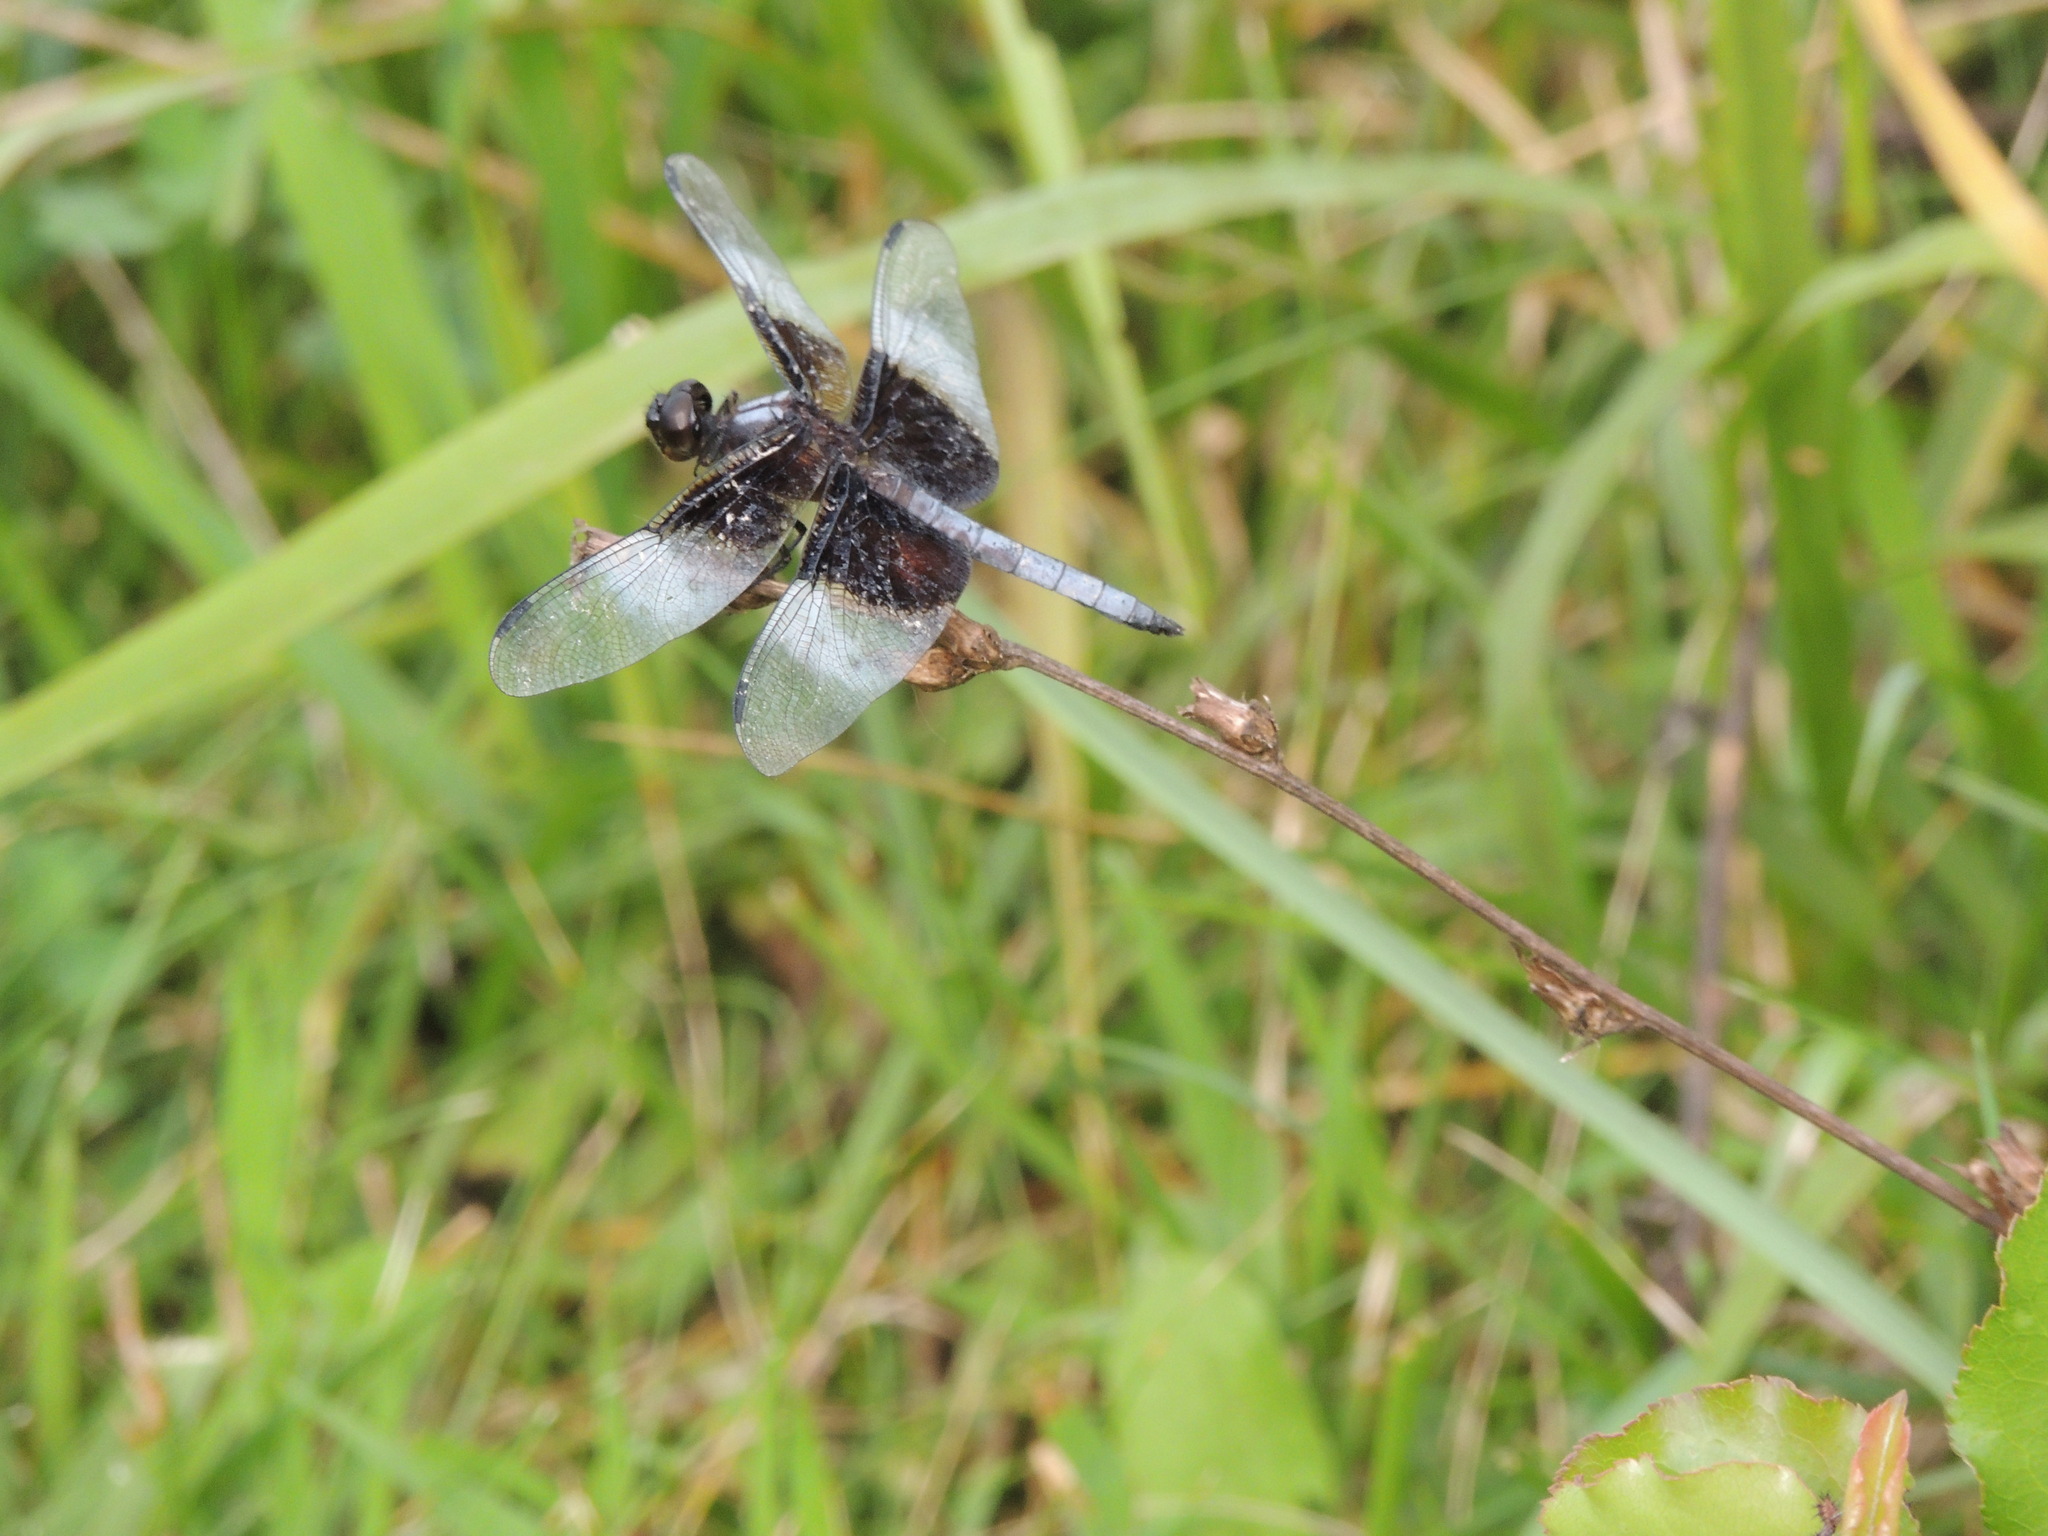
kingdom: Animalia
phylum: Arthropoda
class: Insecta
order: Odonata
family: Libellulidae
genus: Libellula
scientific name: Libellula luctuosa
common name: Widow skimmer
